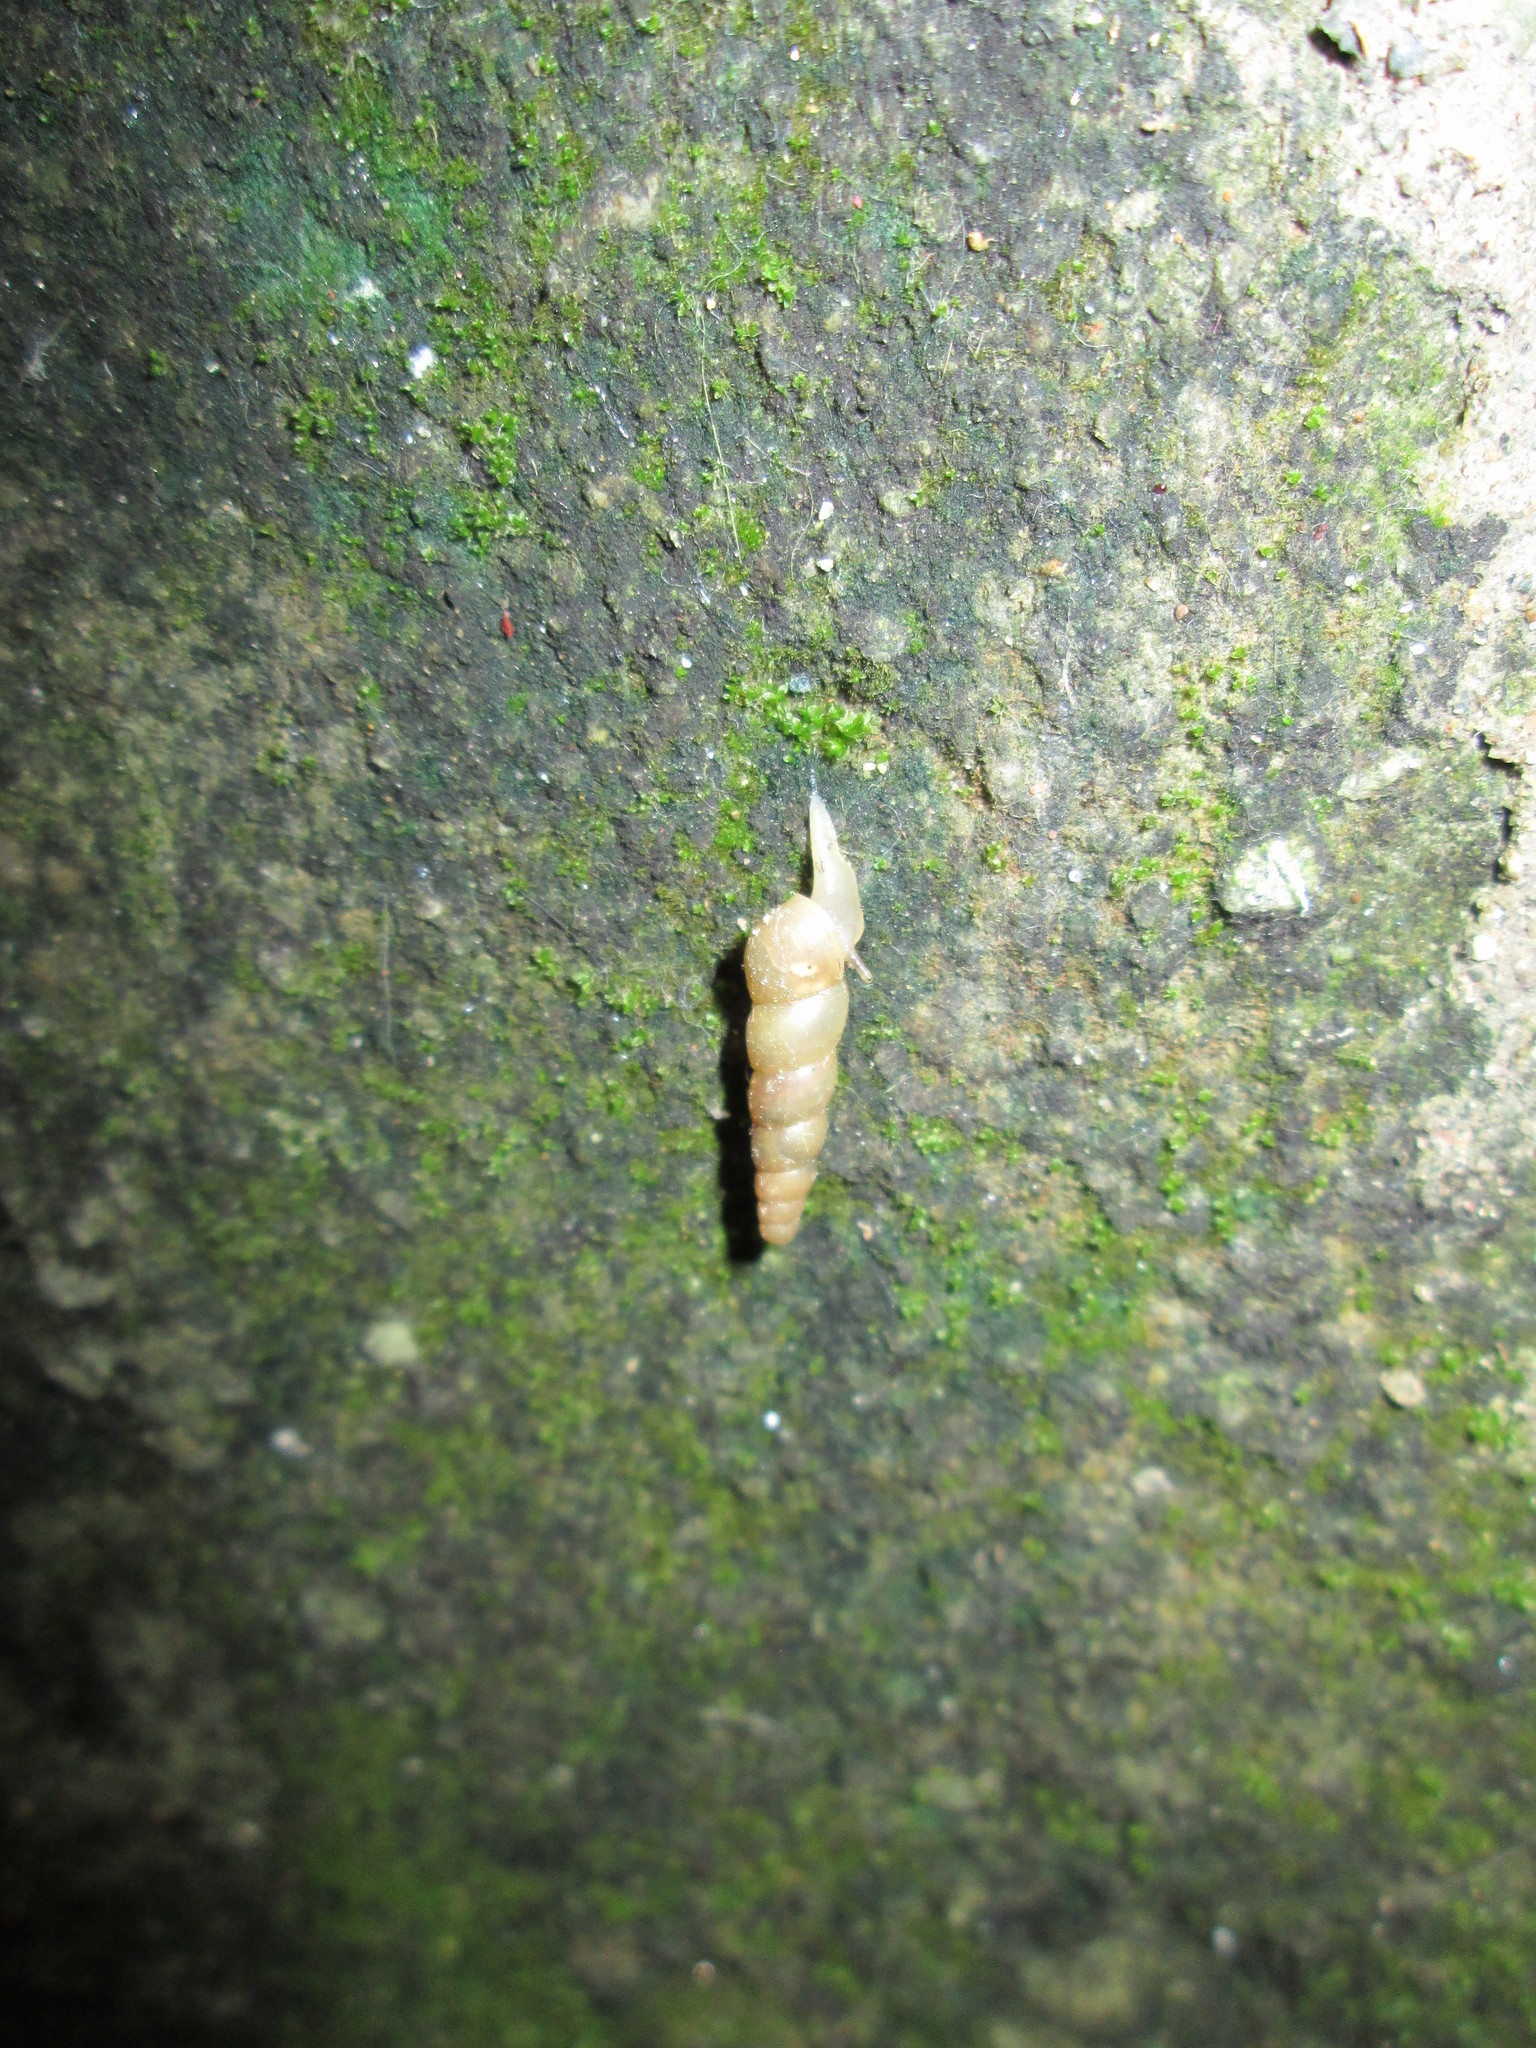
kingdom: Animalia
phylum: Mollusca
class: Gastropoda
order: Stylommatophora
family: Achatinidae
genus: Subulina
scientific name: Subulina octona
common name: Miniature awlsnail
